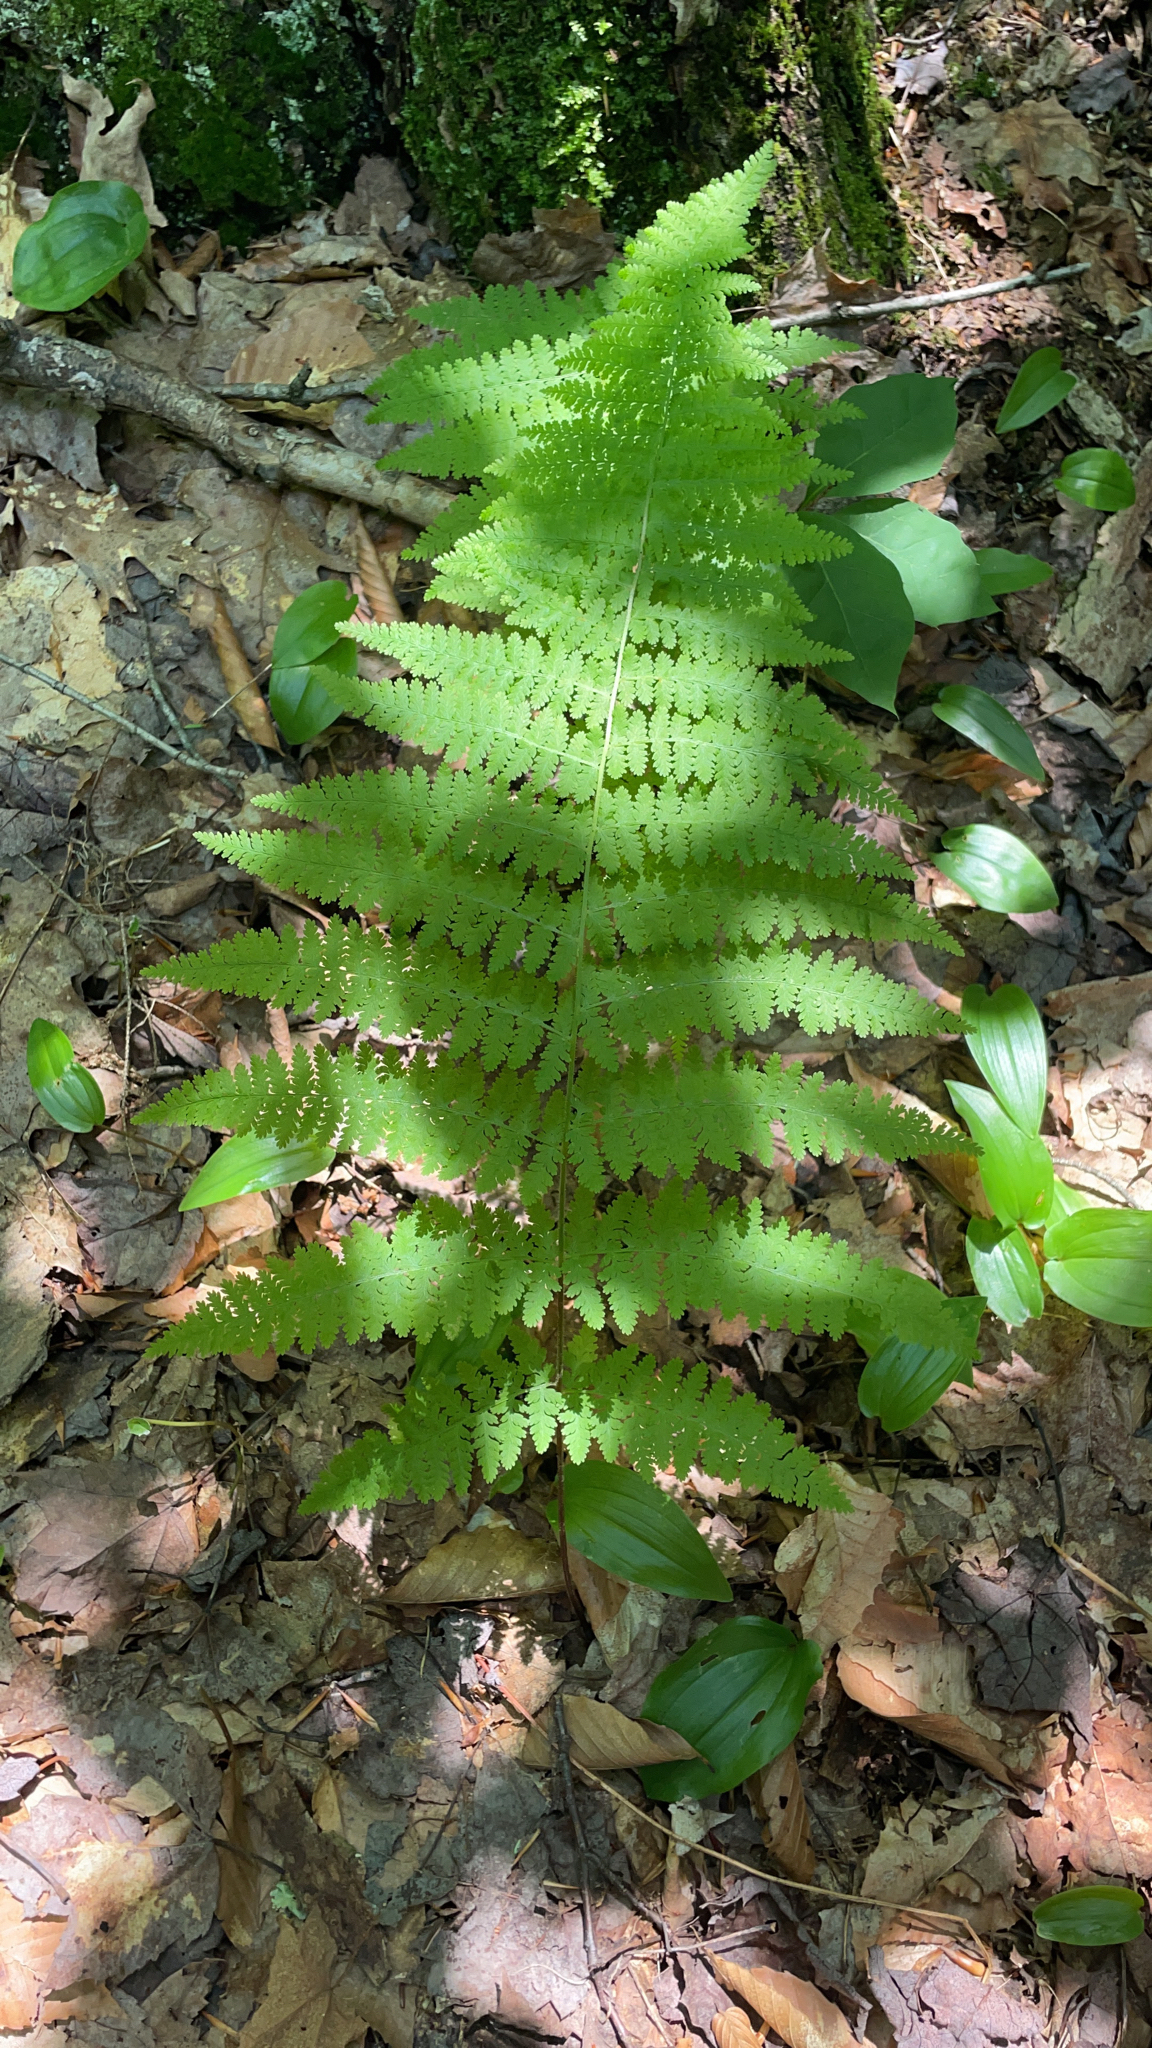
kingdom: Plantae
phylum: Tracheophyta
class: Polypodiopsida
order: Polypodiales
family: Dennstaedtiaceae
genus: Sitobolium
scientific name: Sitobolium punctilobum
